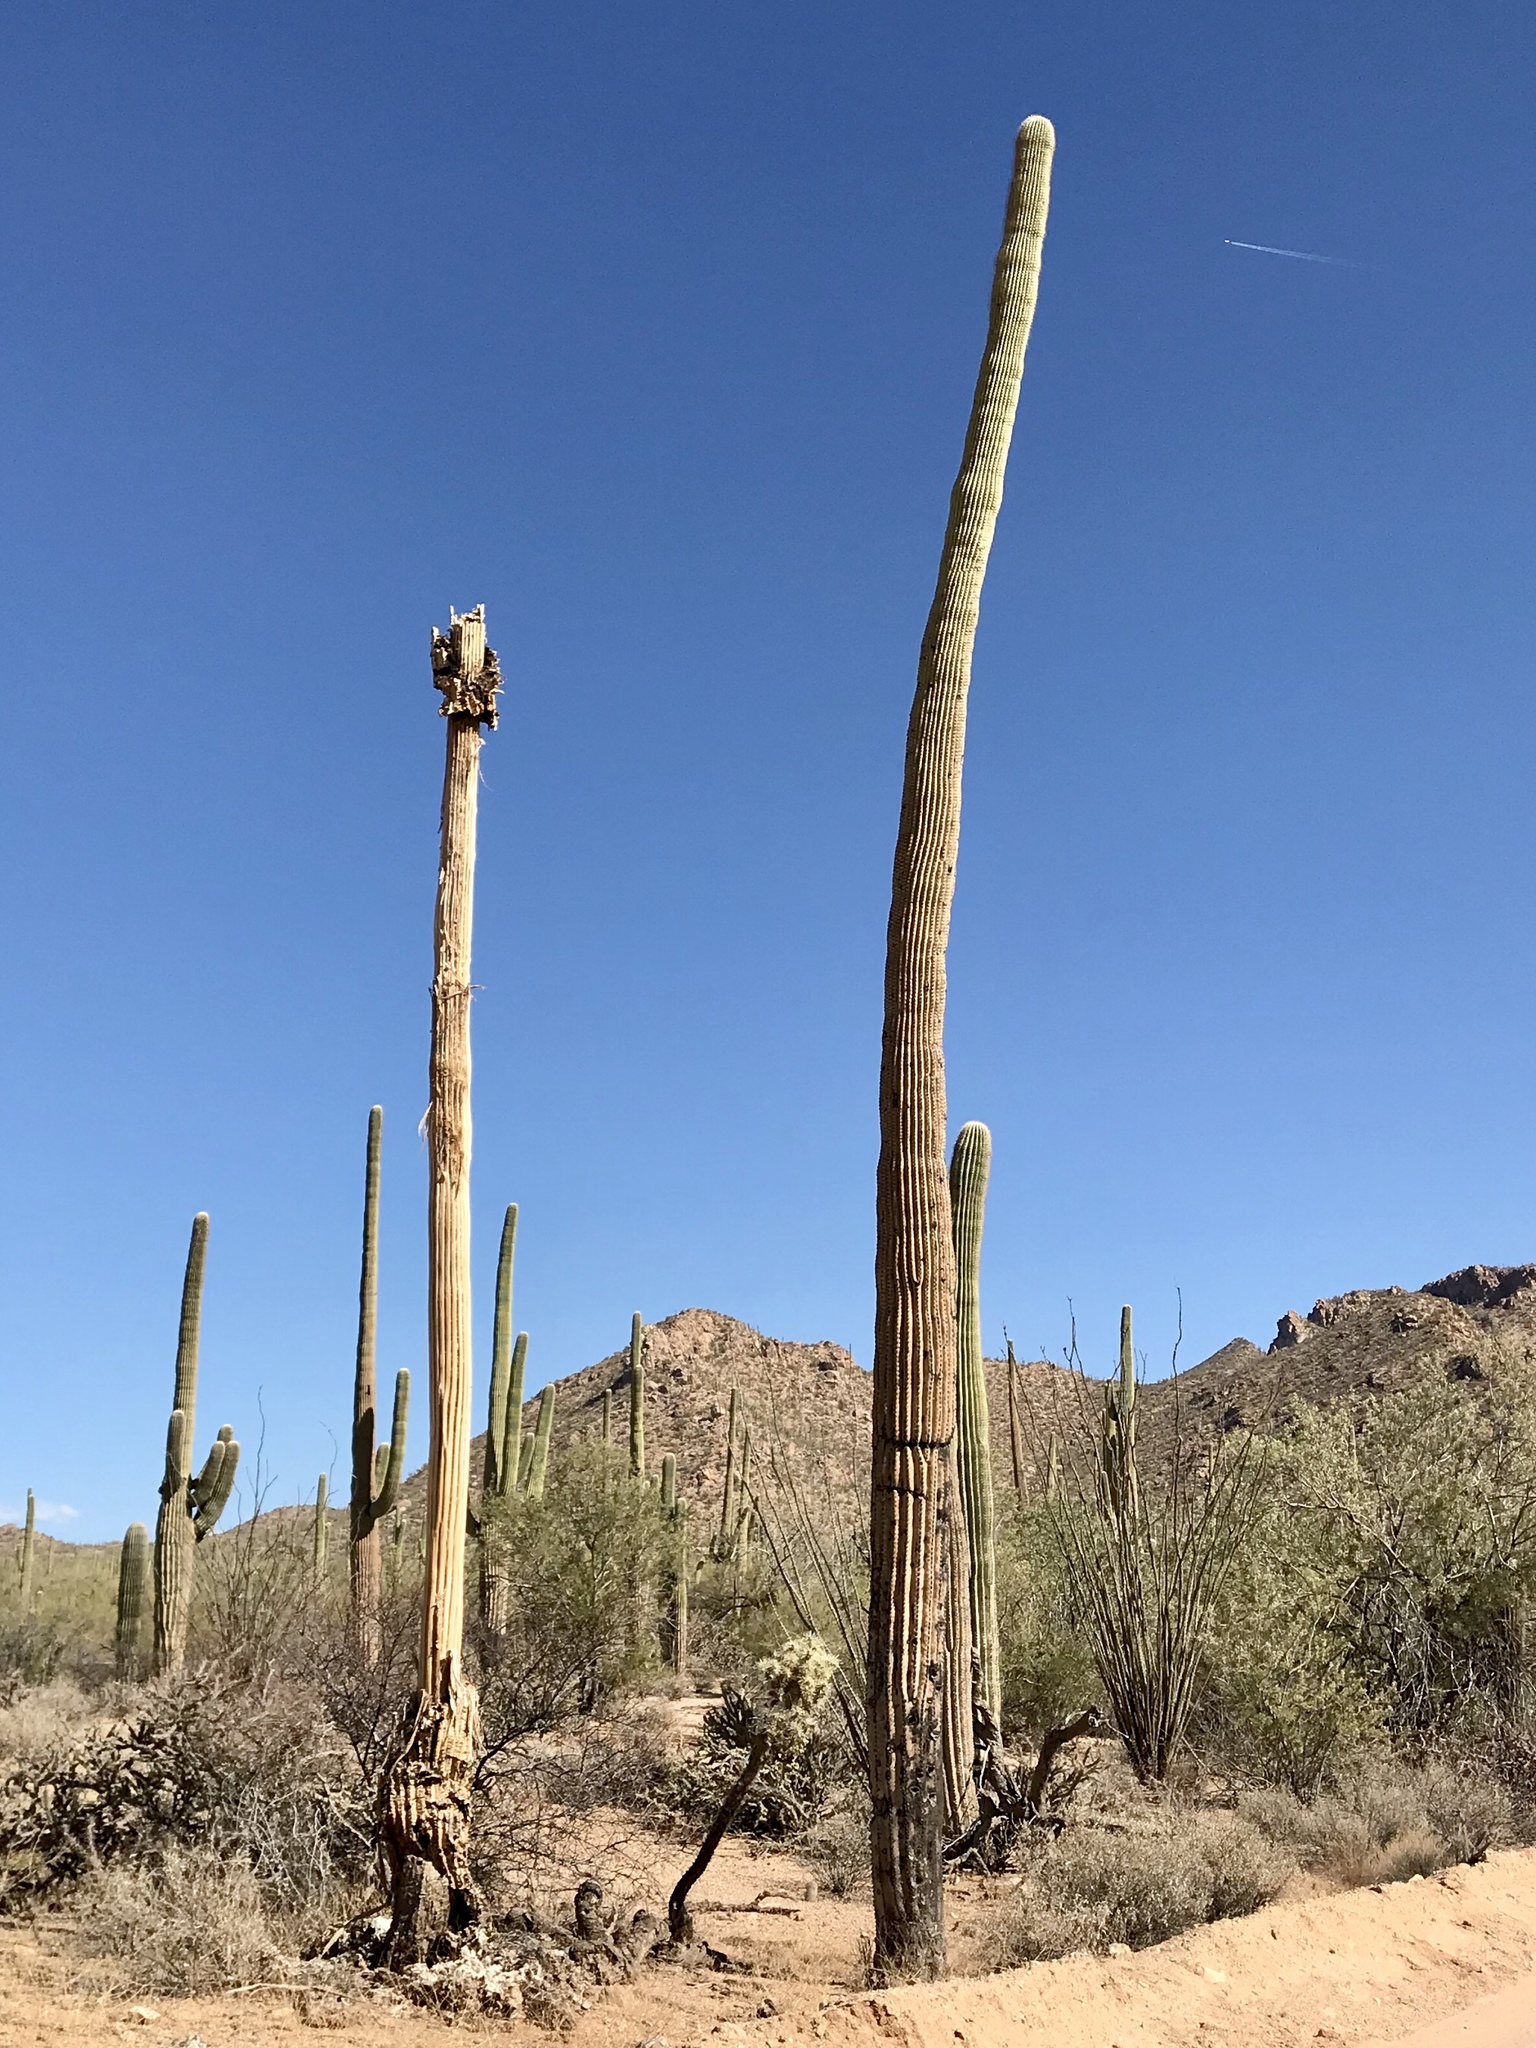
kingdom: Plantae
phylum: Tracheophyta
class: Magnoliopsida
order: Caryophyllales
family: Cactaceae
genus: Carnegiea
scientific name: Carnegiea gigantea
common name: Saguaro
